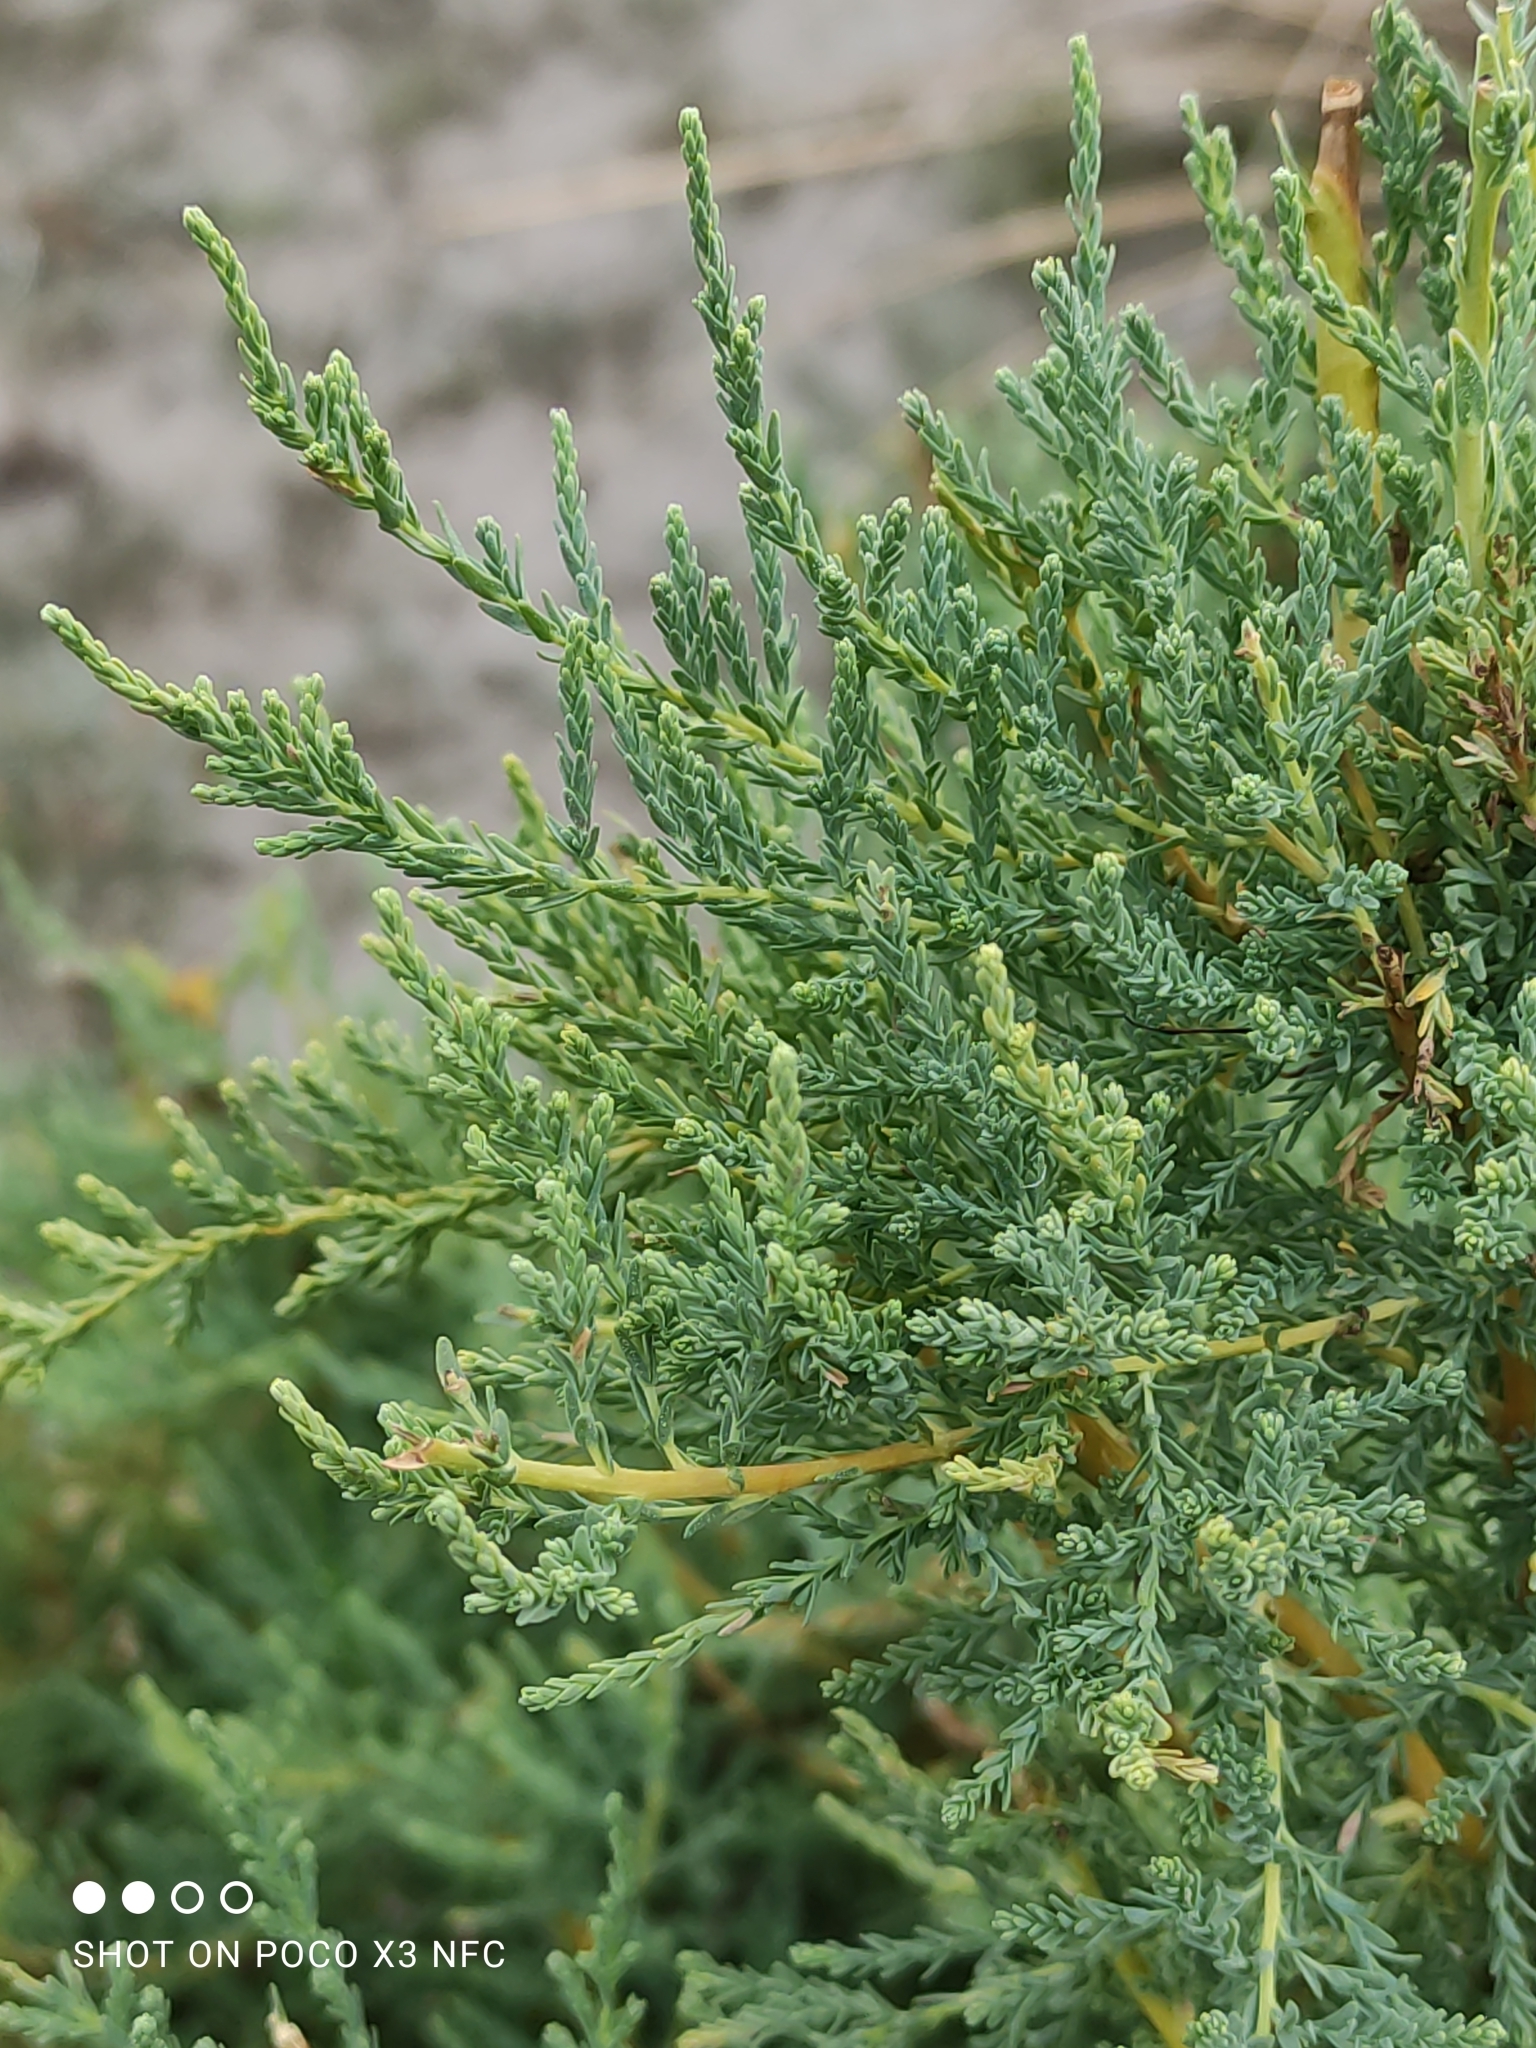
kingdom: Plantae
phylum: Tracheophyta
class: Magnoliopsida
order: Caryophyllales
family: Tamaricaceae
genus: Myricaria
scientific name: Myricaria germanica
